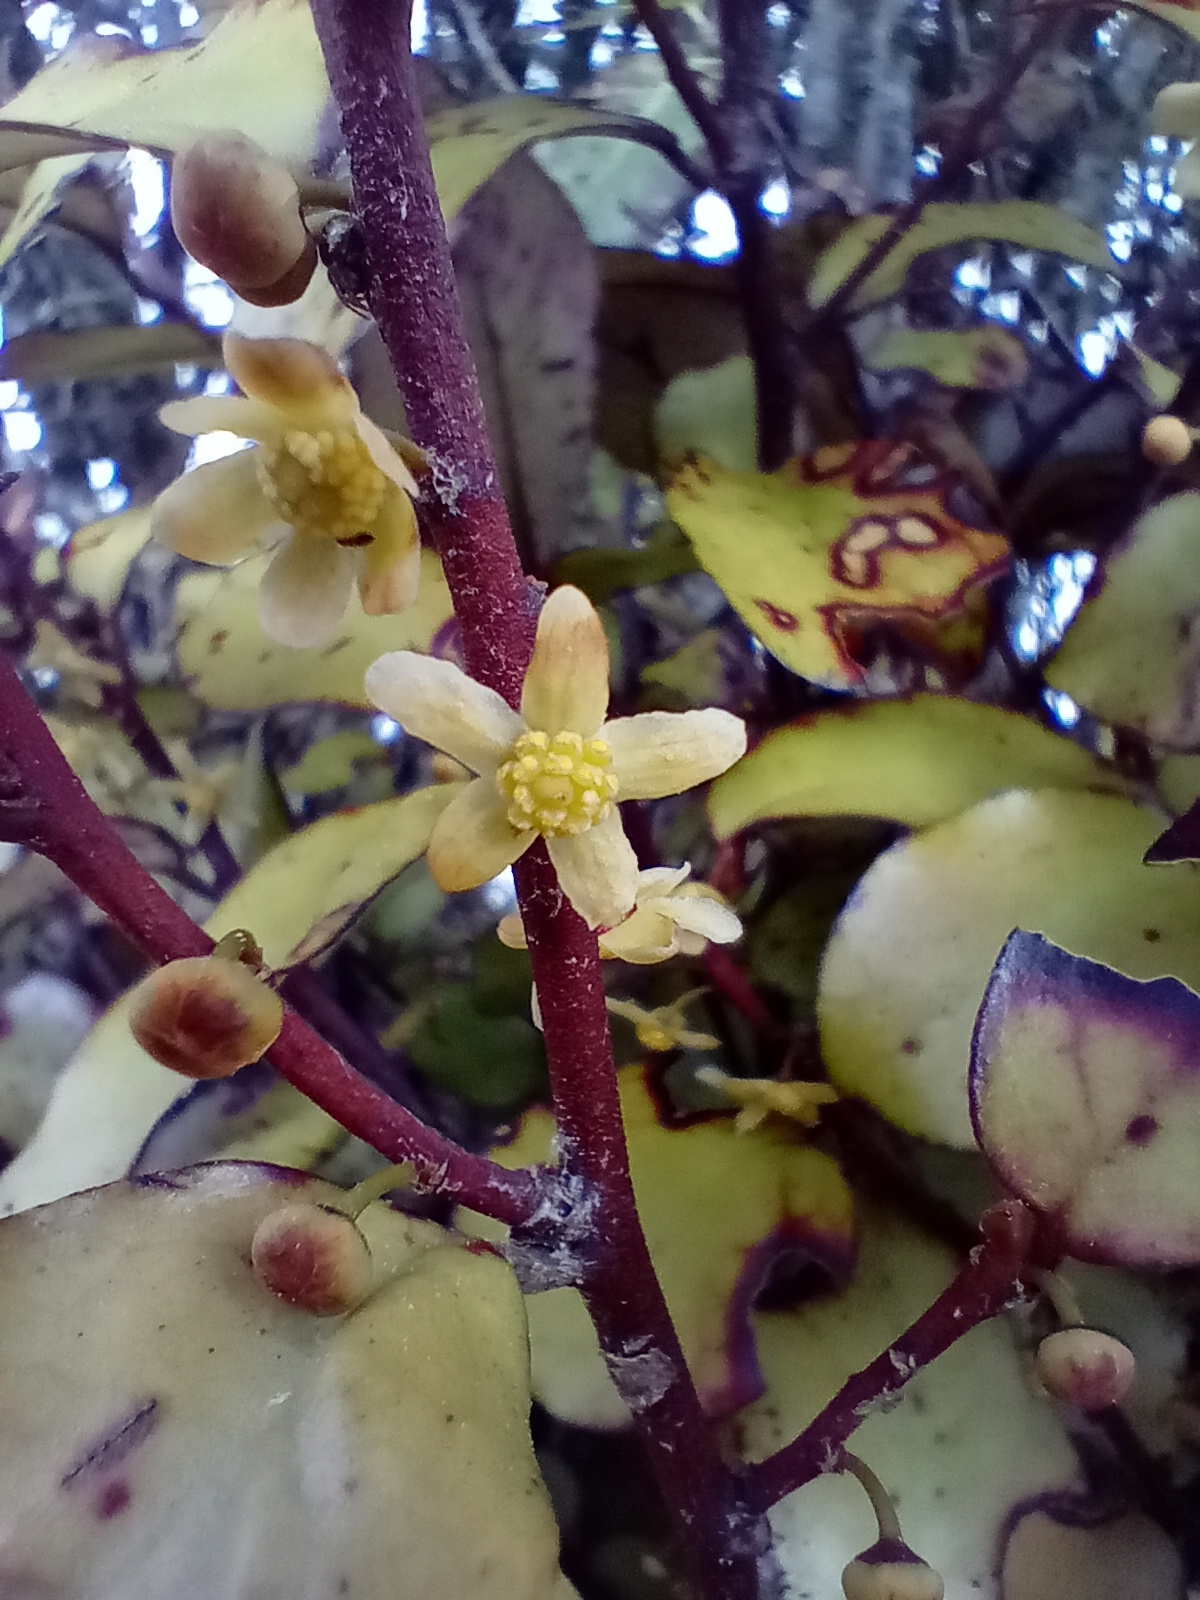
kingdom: Plantae
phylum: Tracheophyta
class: Magnoliopsida
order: Canellales
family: Winteraceae
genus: Pseudowintera
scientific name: Pseudowintera colorata
